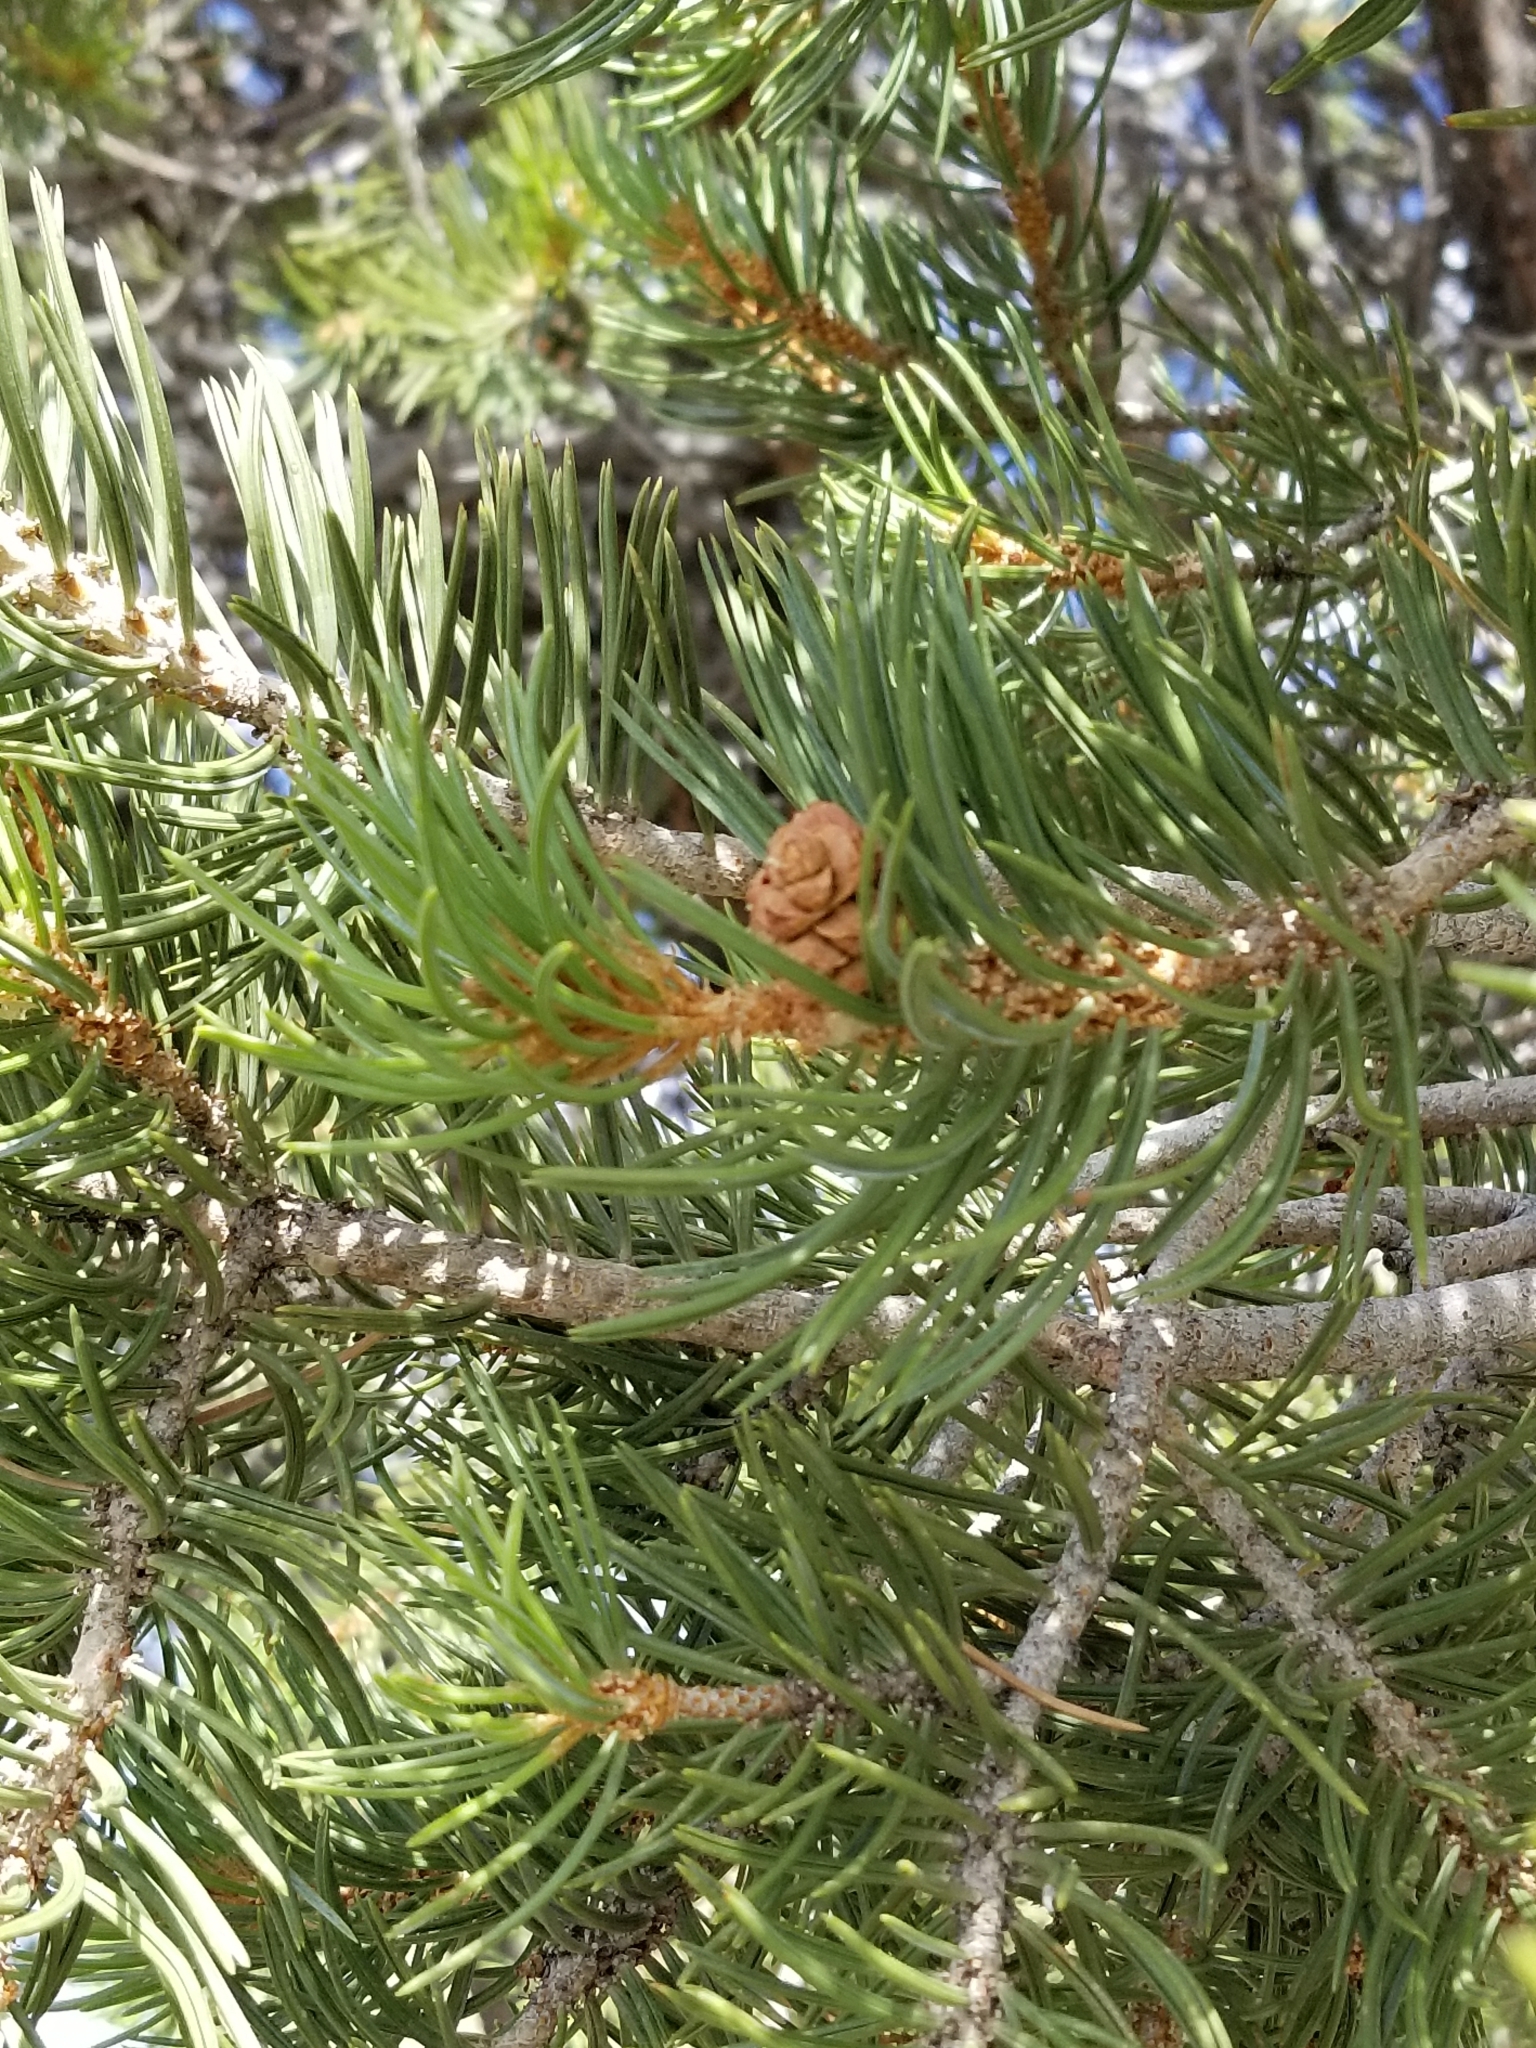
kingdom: Plantae
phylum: Tracheophyta
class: Pinopsida
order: Pinales
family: Pinaceae
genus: Pinus
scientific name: Pinus edulis
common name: Colorado pinyon
